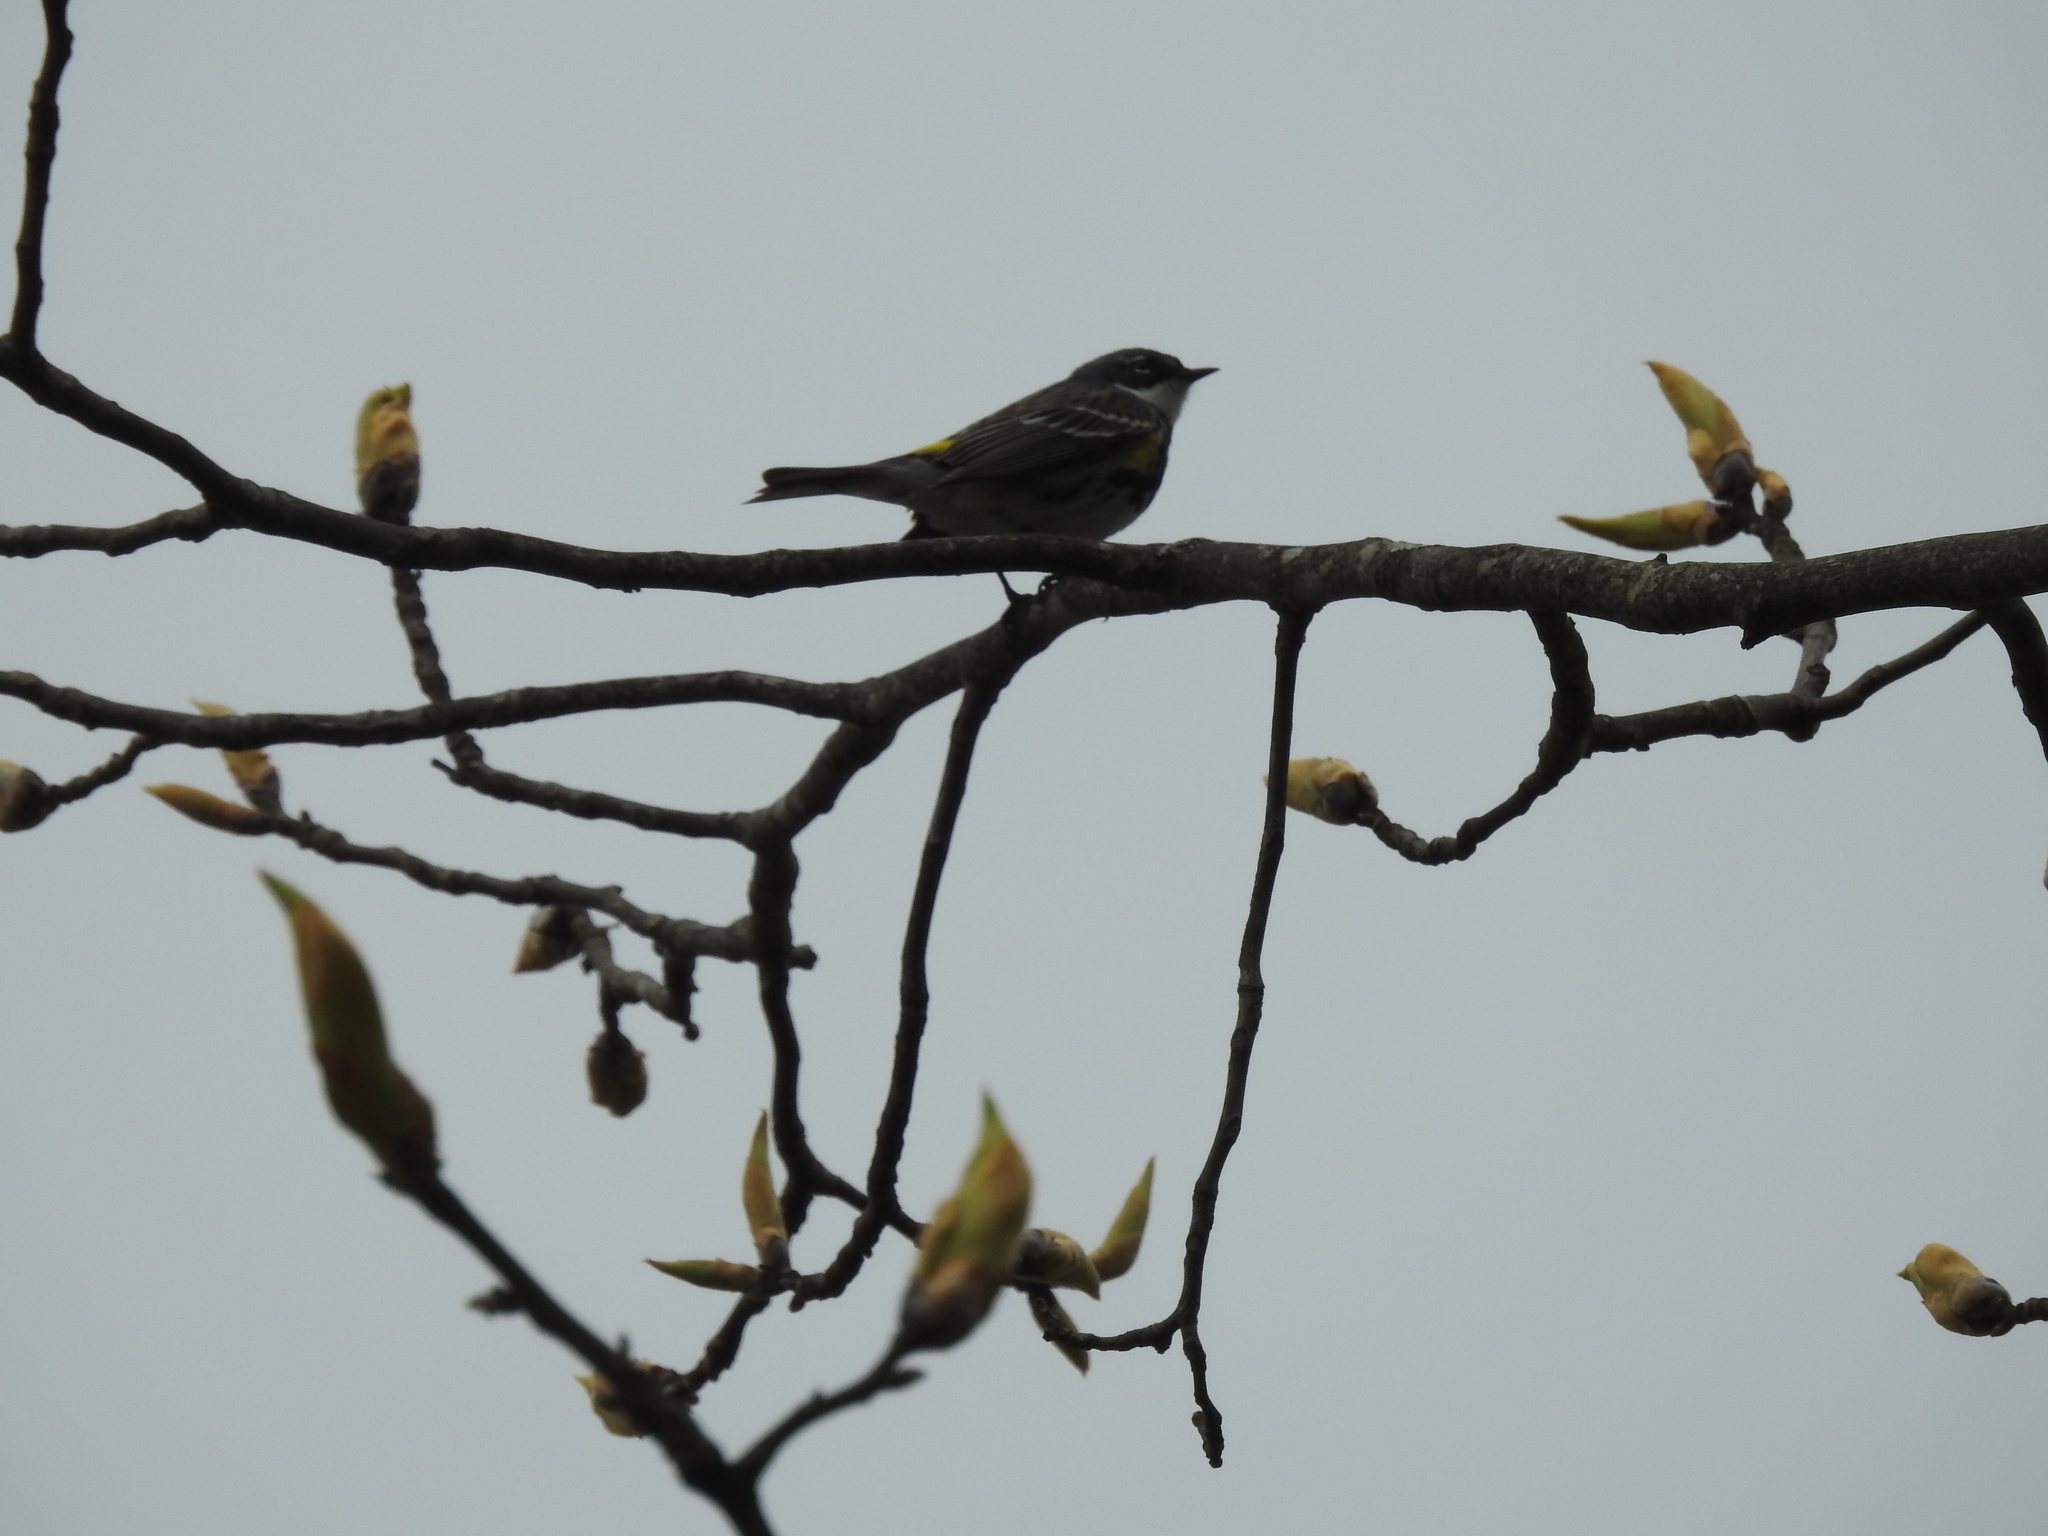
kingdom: Animalia
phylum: Chordata
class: Aves
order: Passeriformes
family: Parulidae
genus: Setophaga
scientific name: Setophaga coronata
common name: Myrtle warbler
